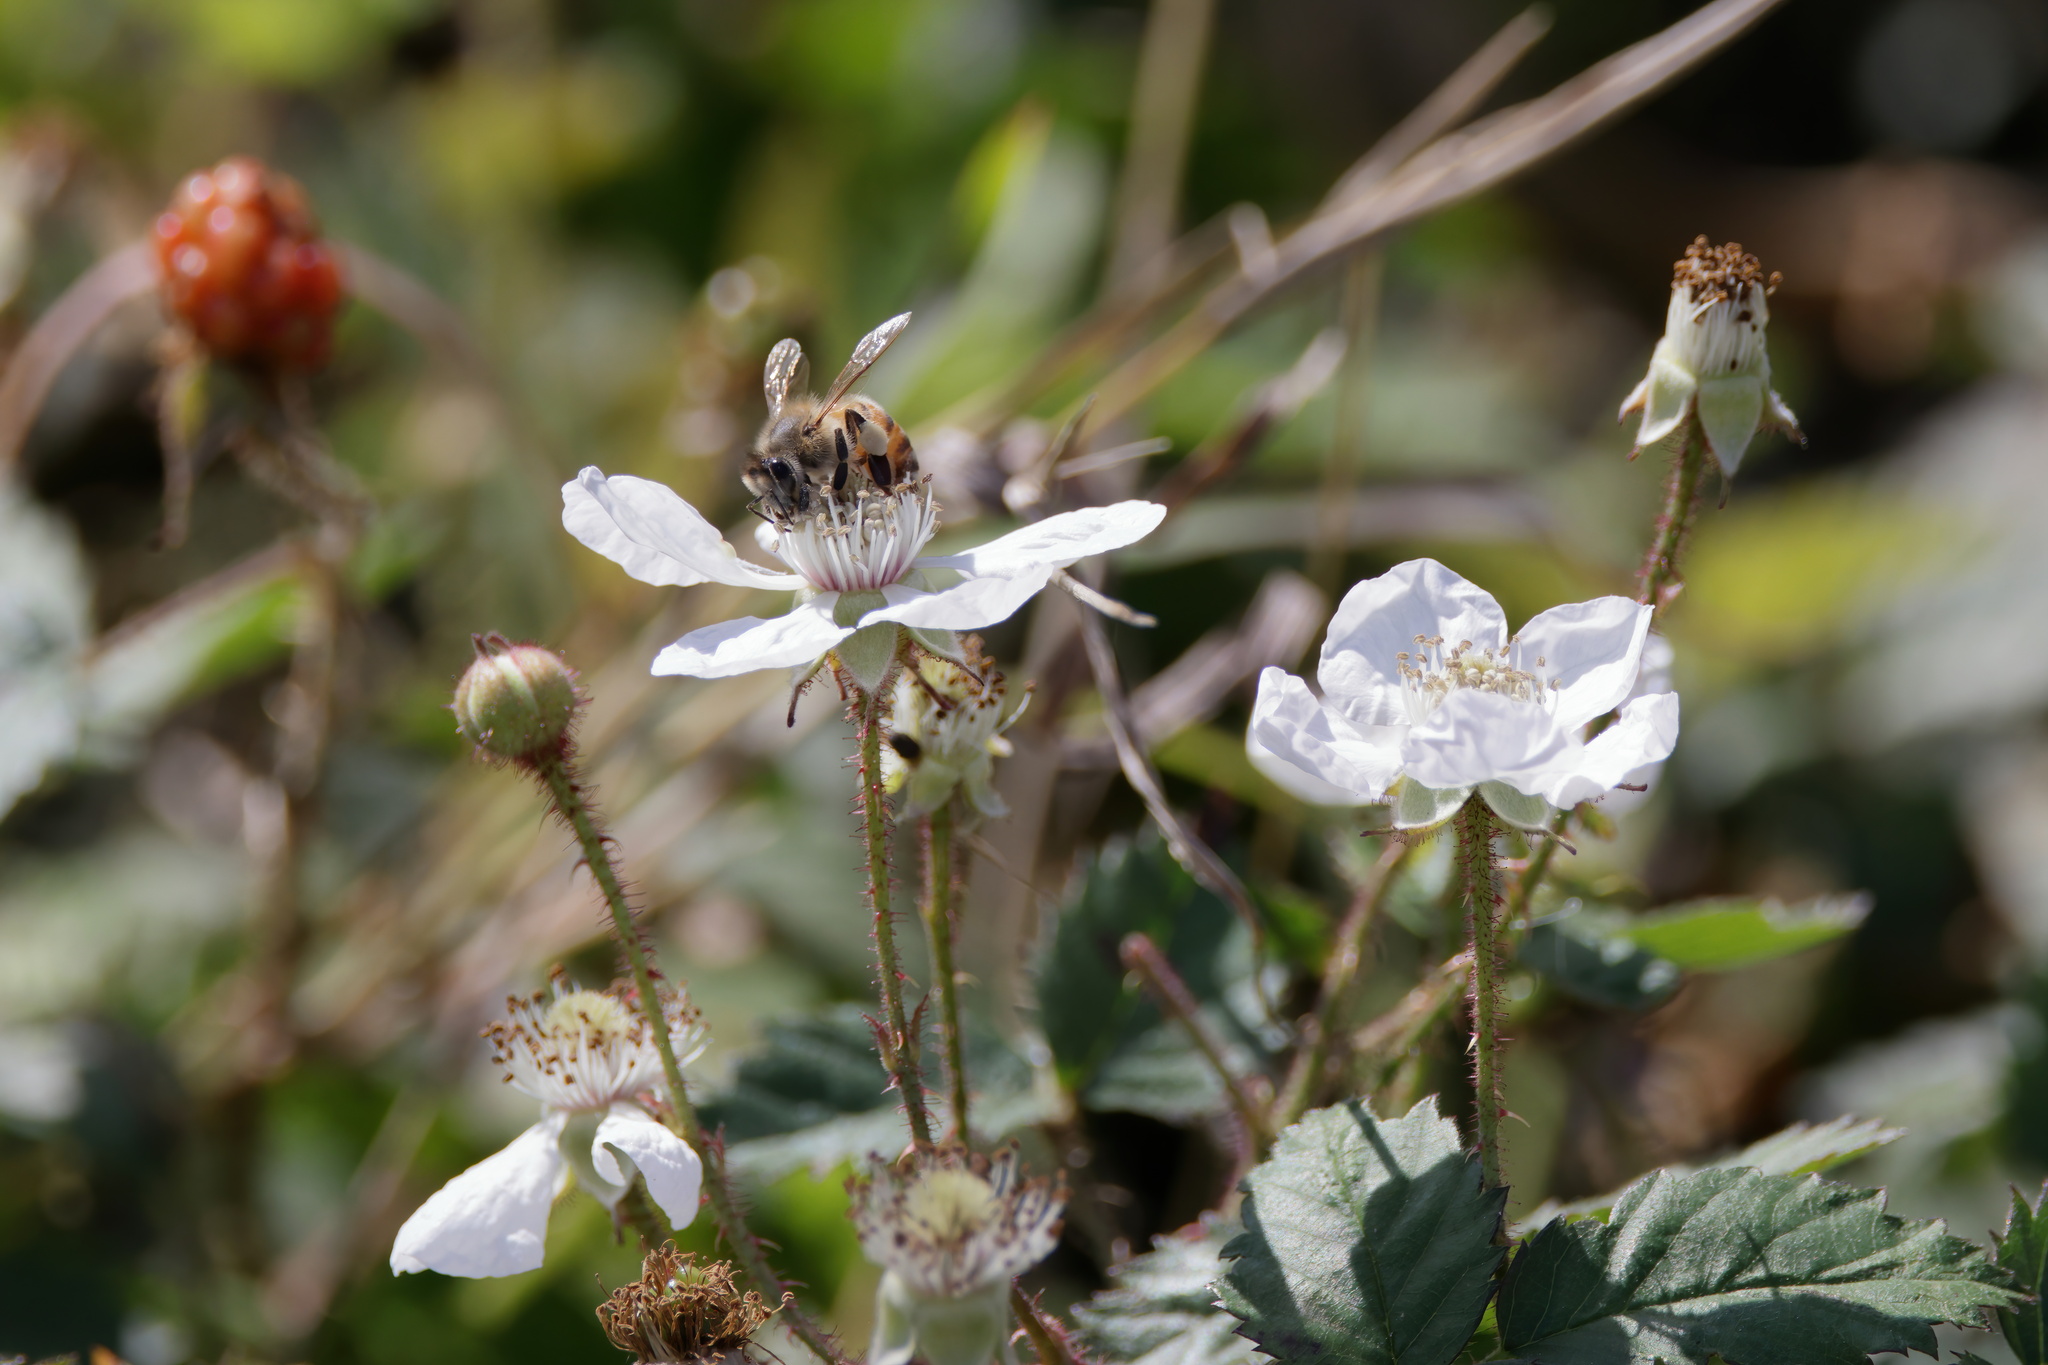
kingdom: Plantae
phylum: Tracheophyta
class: Magnoliopsida
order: Rosales
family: Rosaceae
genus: Rubus
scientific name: Rubus trivialis
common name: Southern dewberry
